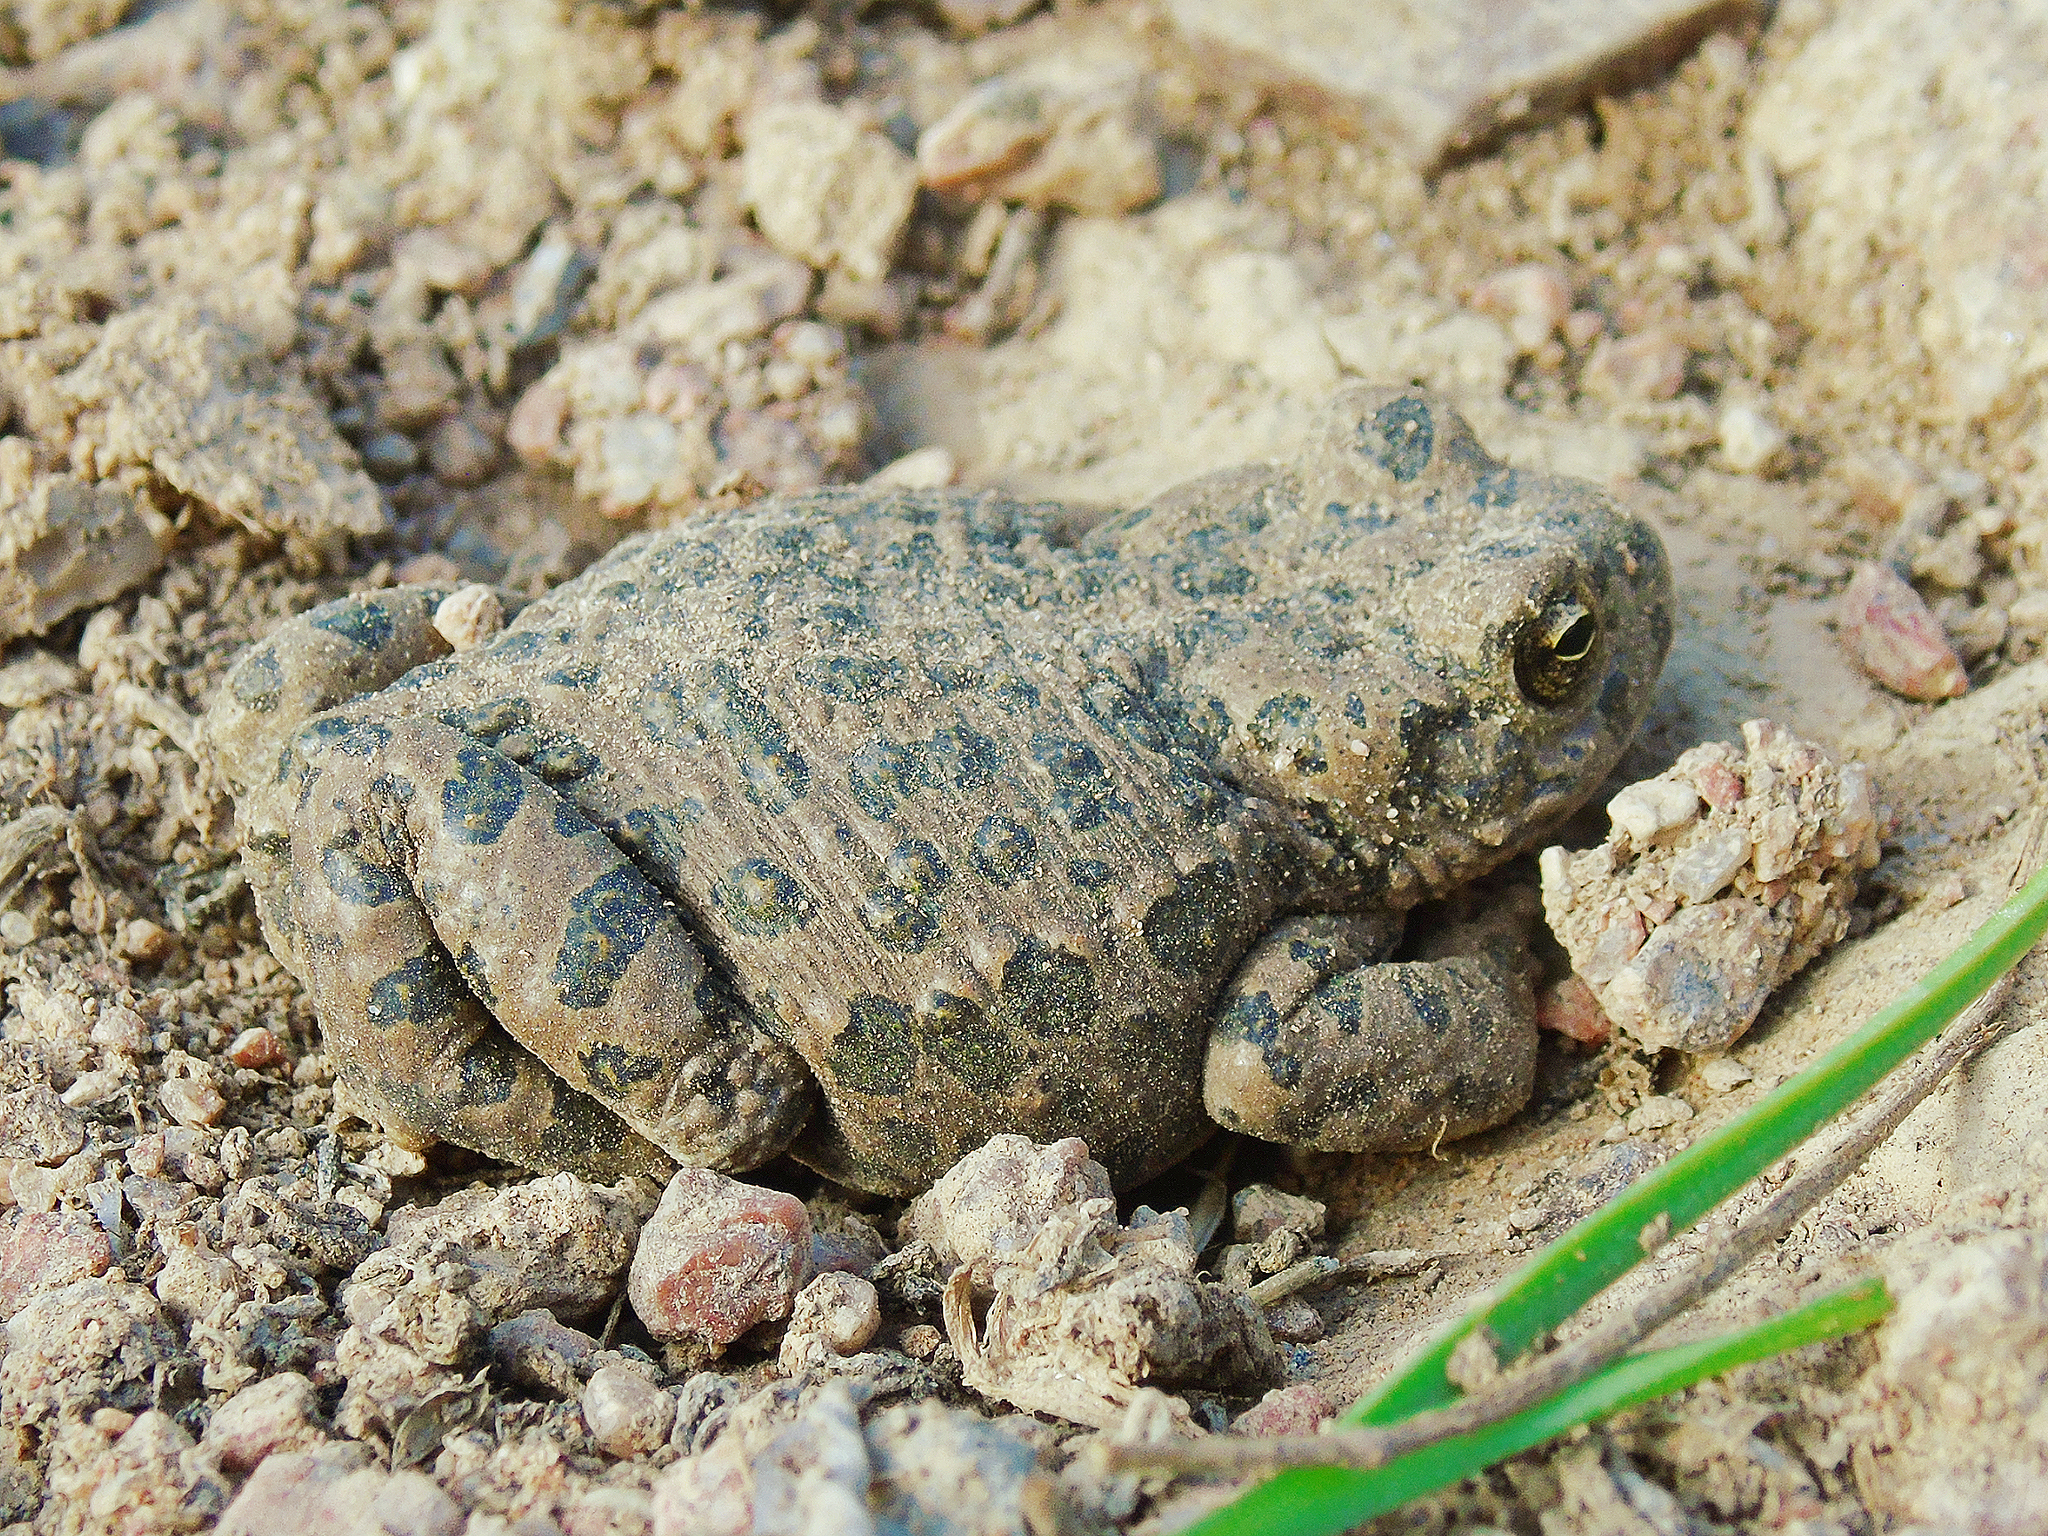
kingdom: Animalia
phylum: Chordata
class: Amphibia
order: Anura
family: Bufonidae
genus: Bufotes
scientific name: Bufotes pewzowi
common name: Xinjiang toad
